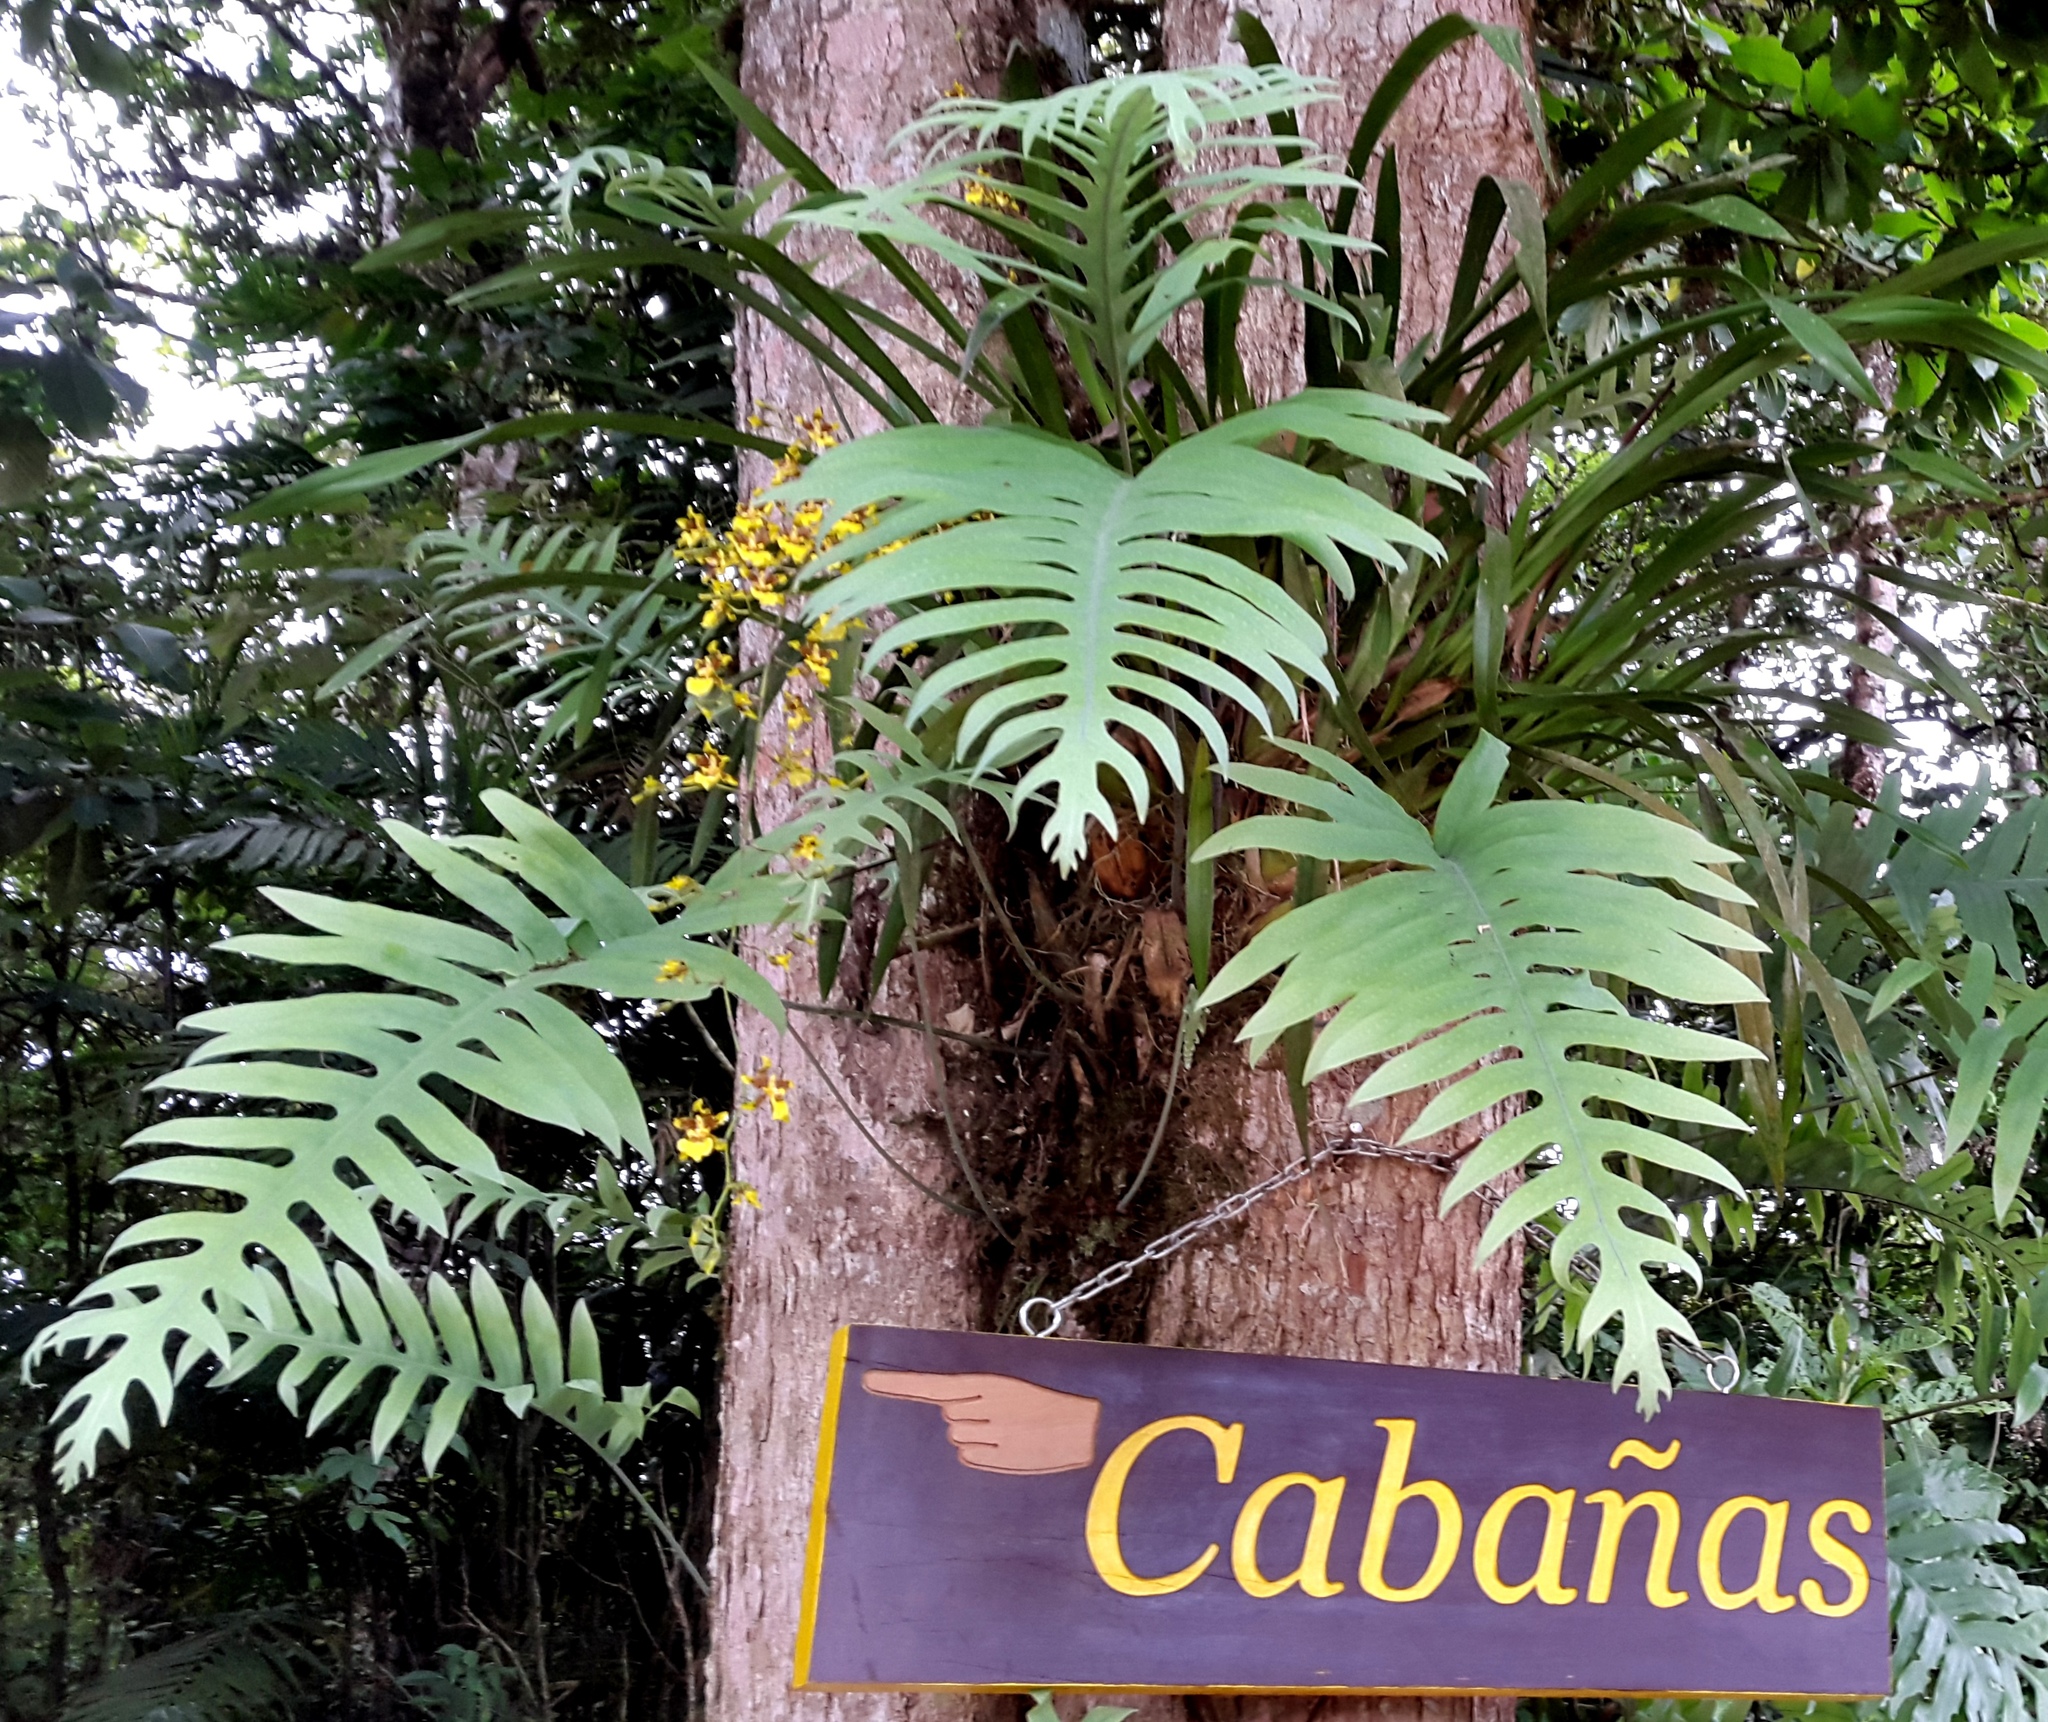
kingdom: Plantae
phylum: Tracheophyta
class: Liliopsida
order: Asparagales
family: Orchidaceae
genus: Oncidium
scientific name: Oncidium sphacelatum
